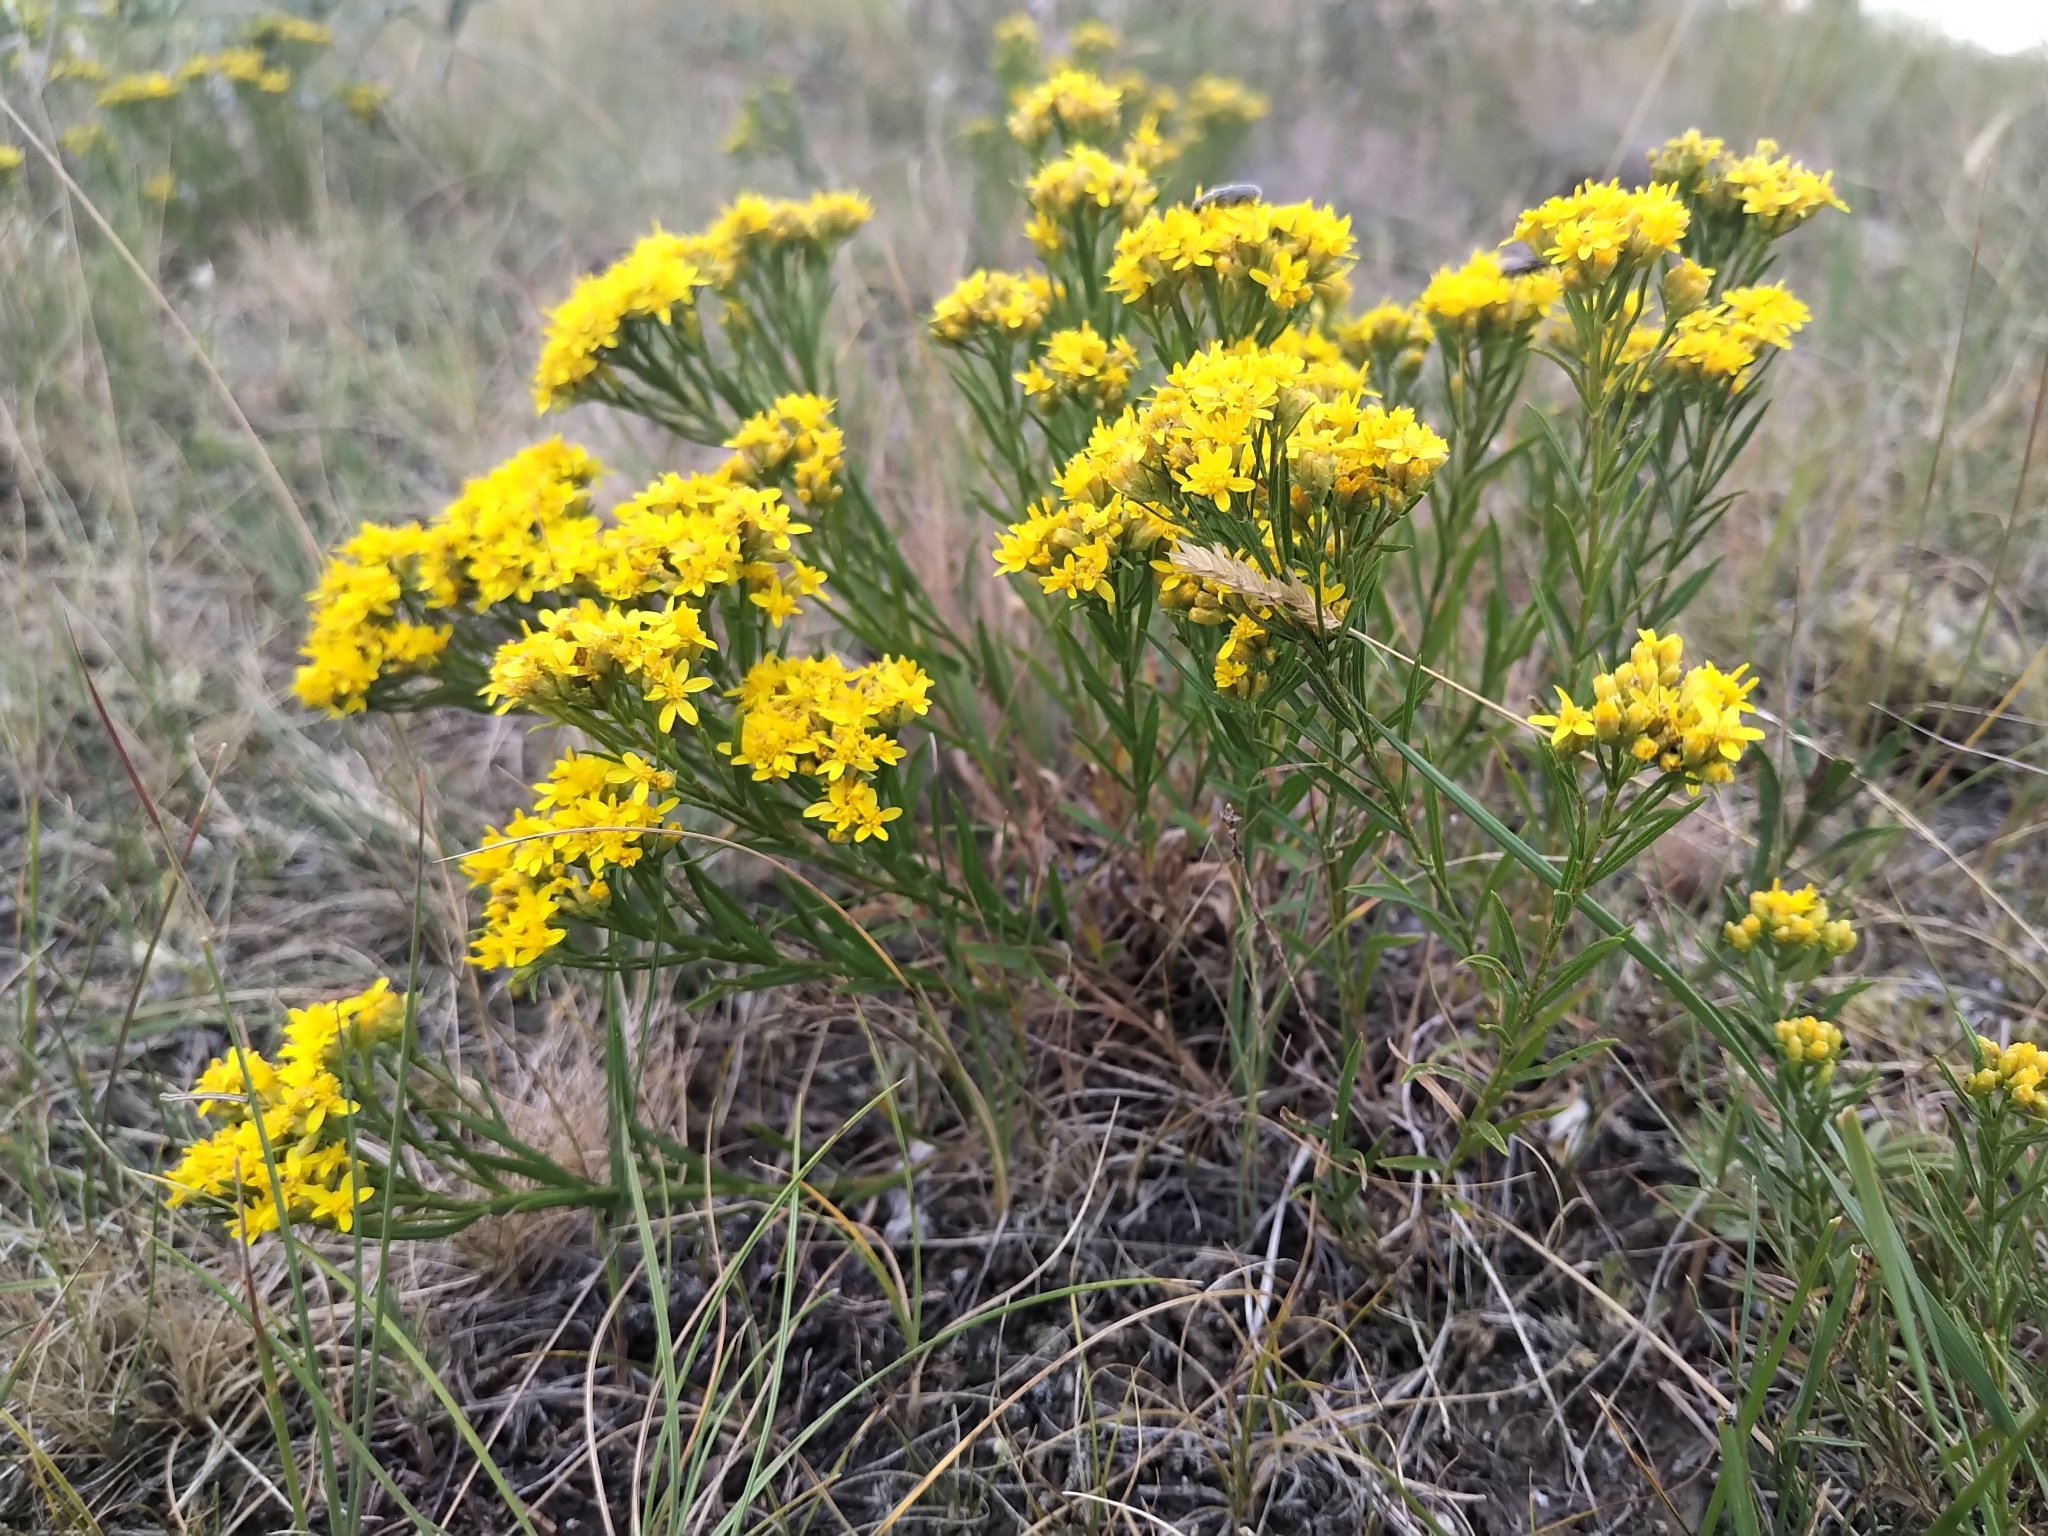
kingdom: Plantae
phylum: Tracheophyta
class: Magnoliopsida
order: Asterales
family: Asteraceae
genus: Gutierrezia
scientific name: Gutierrezia sarothrae
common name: Broom snakeweed
